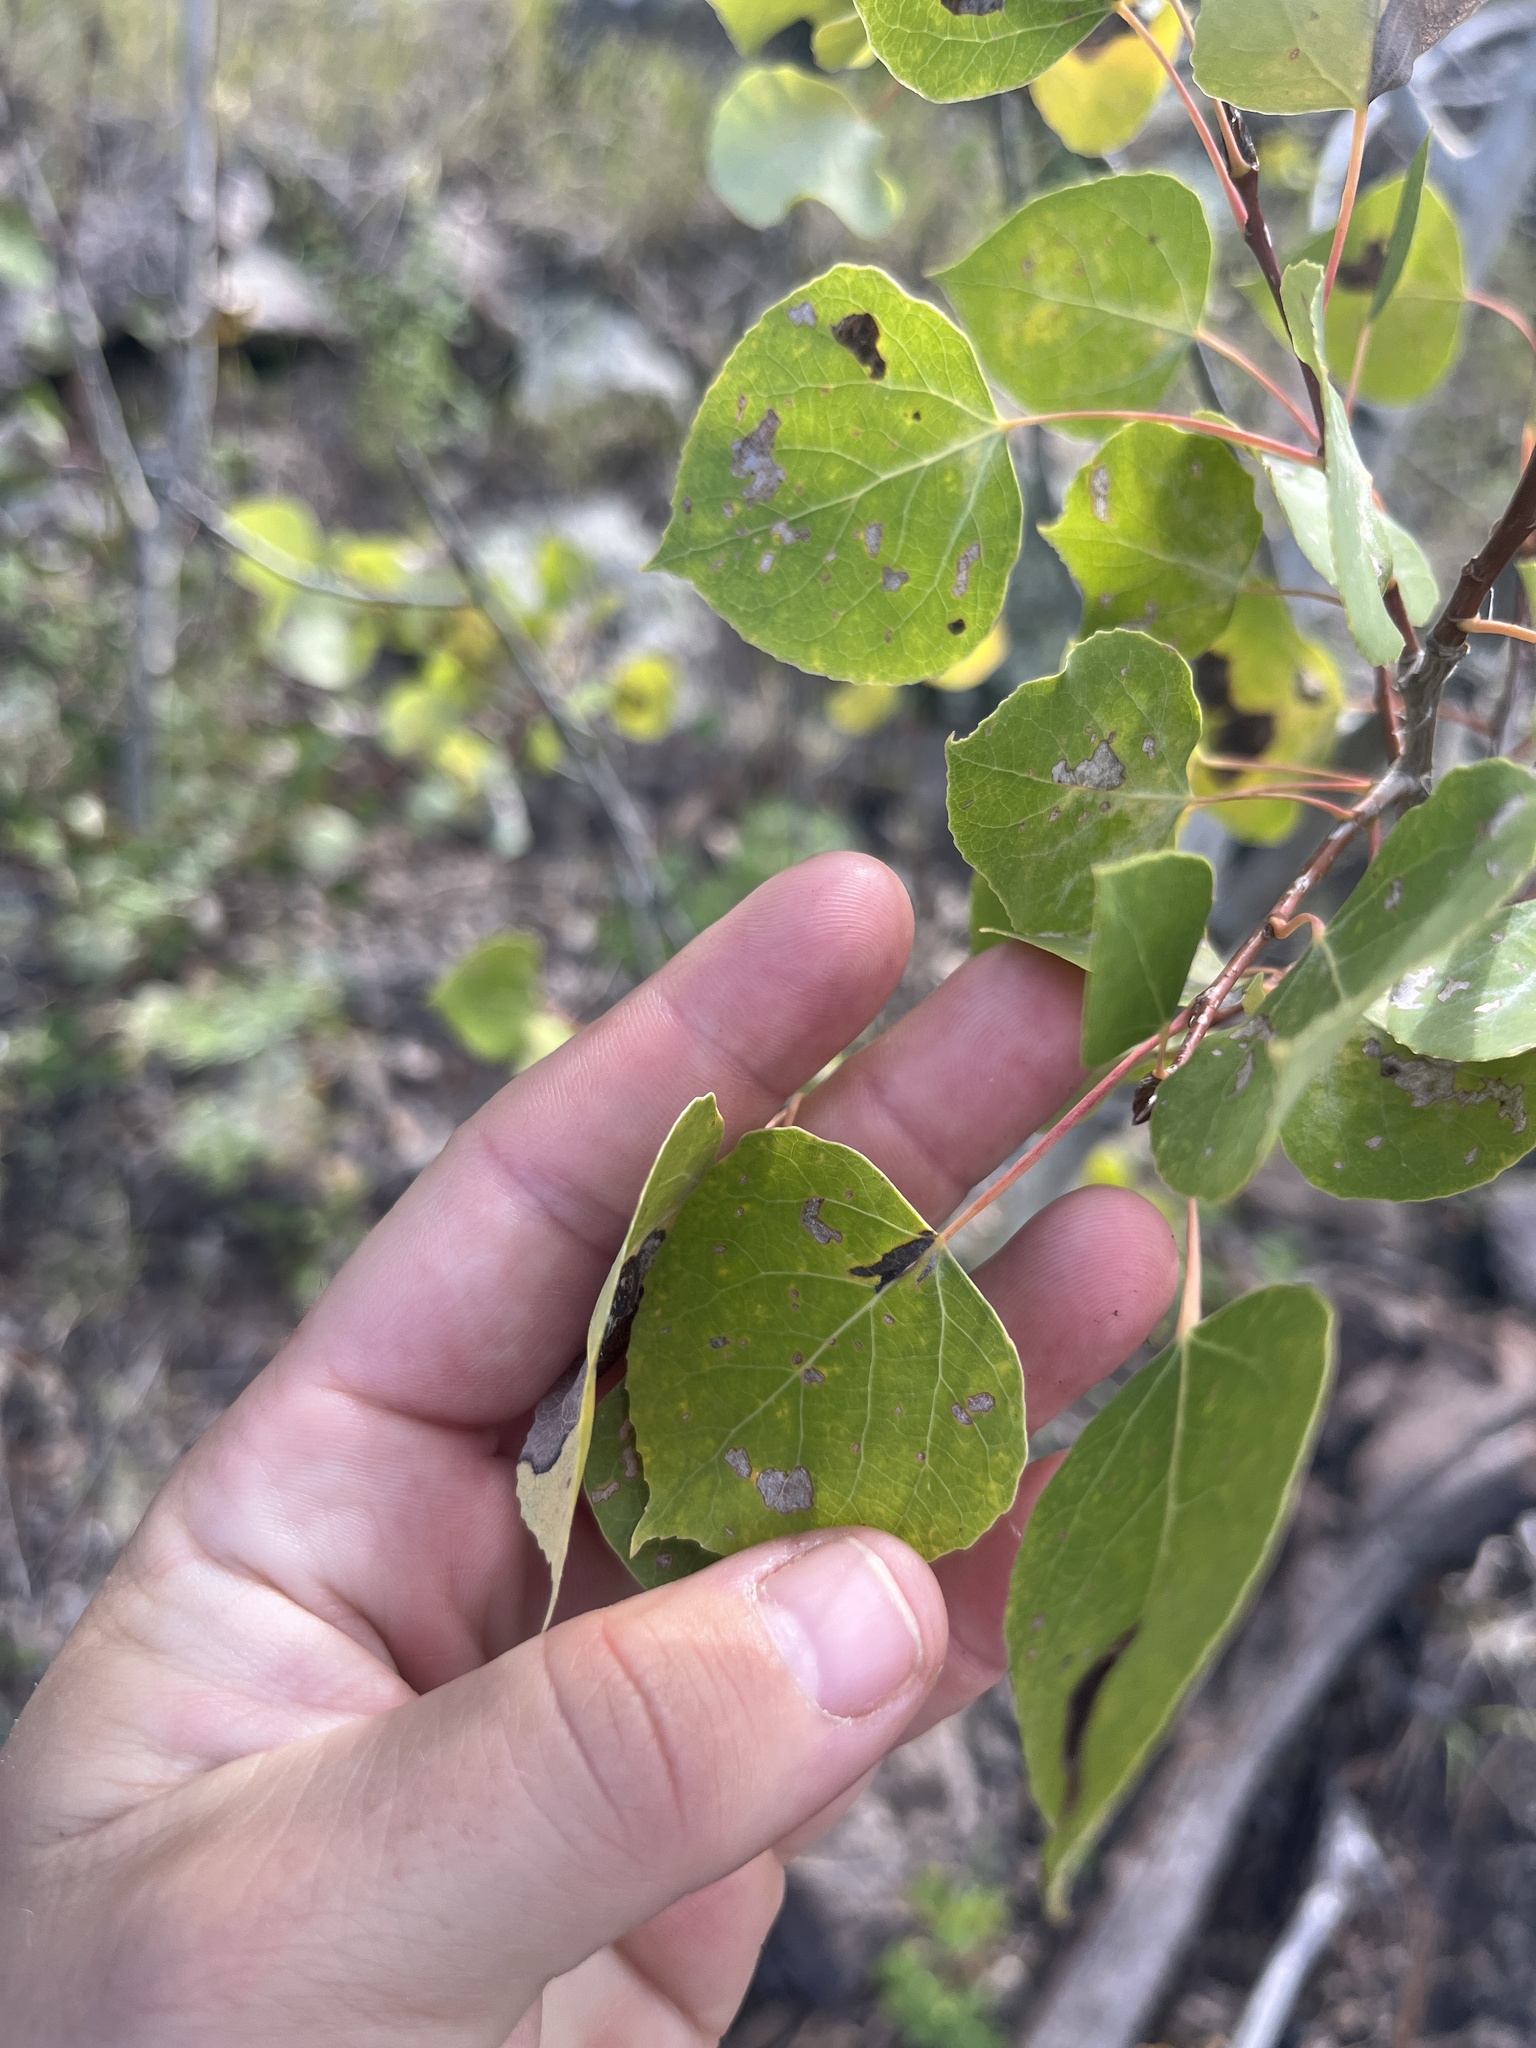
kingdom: Plantae
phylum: Tracheophyta
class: Magnoliopsida
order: Malpighiales
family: Salicaceae
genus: Populus
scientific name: Populus tremuloides
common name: Quaking aspen
